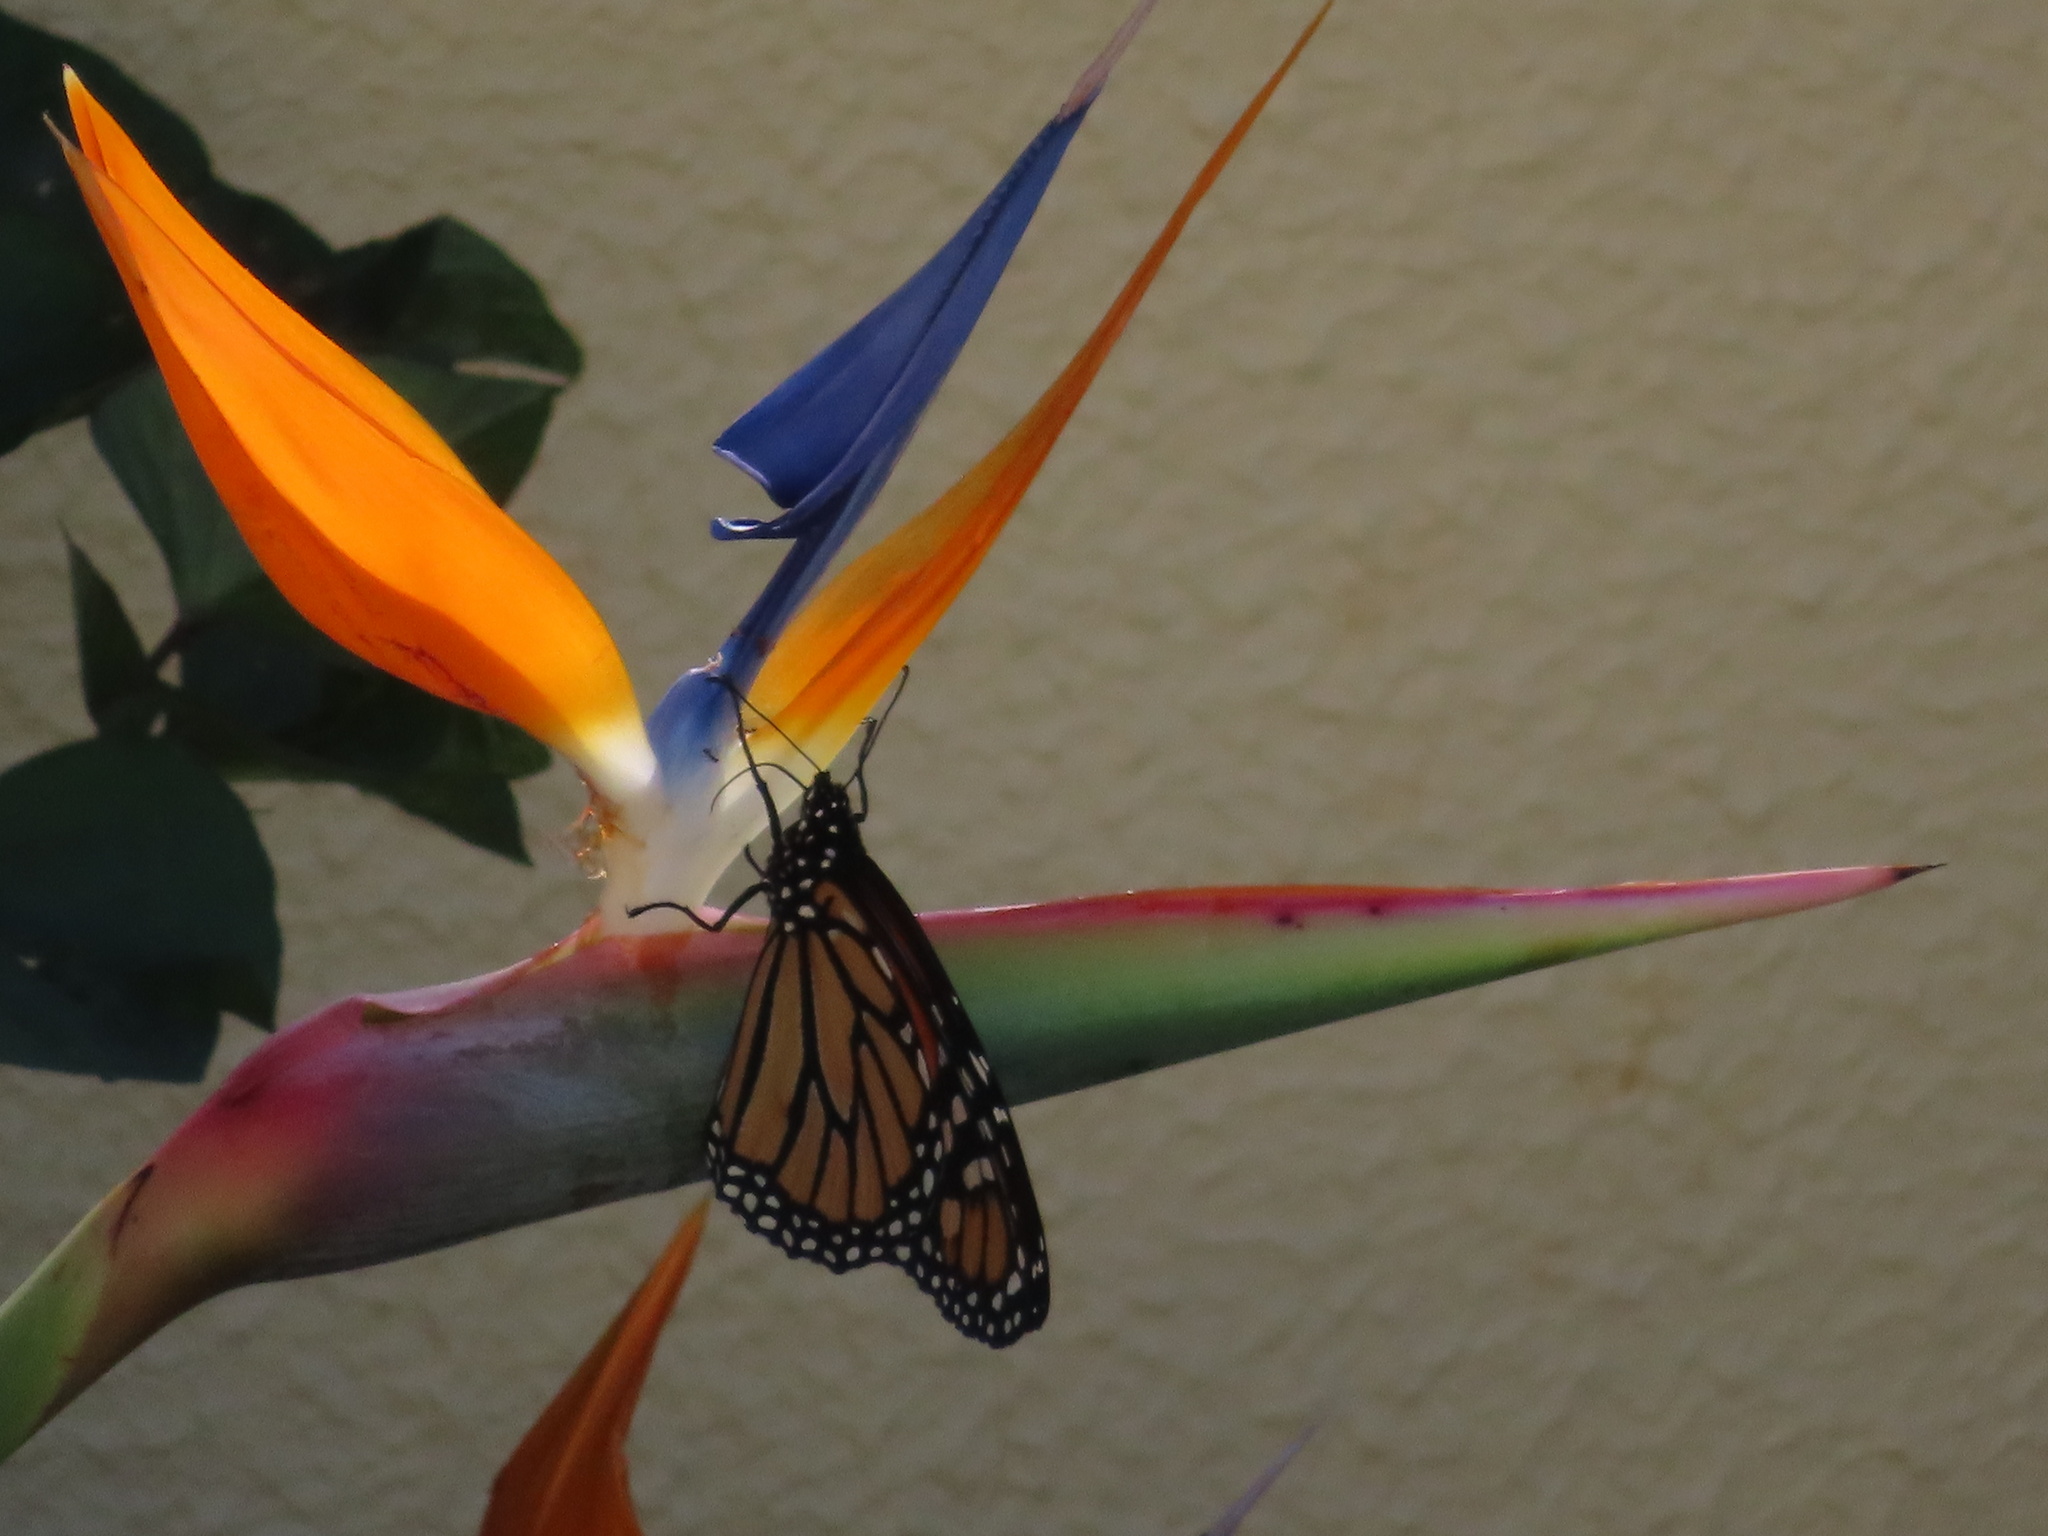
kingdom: Animalia
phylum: Arthropoda
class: Insecta
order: Lepidoptera
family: Nymphalidae
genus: Danaus
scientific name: Danaus plexippus
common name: Monarch
